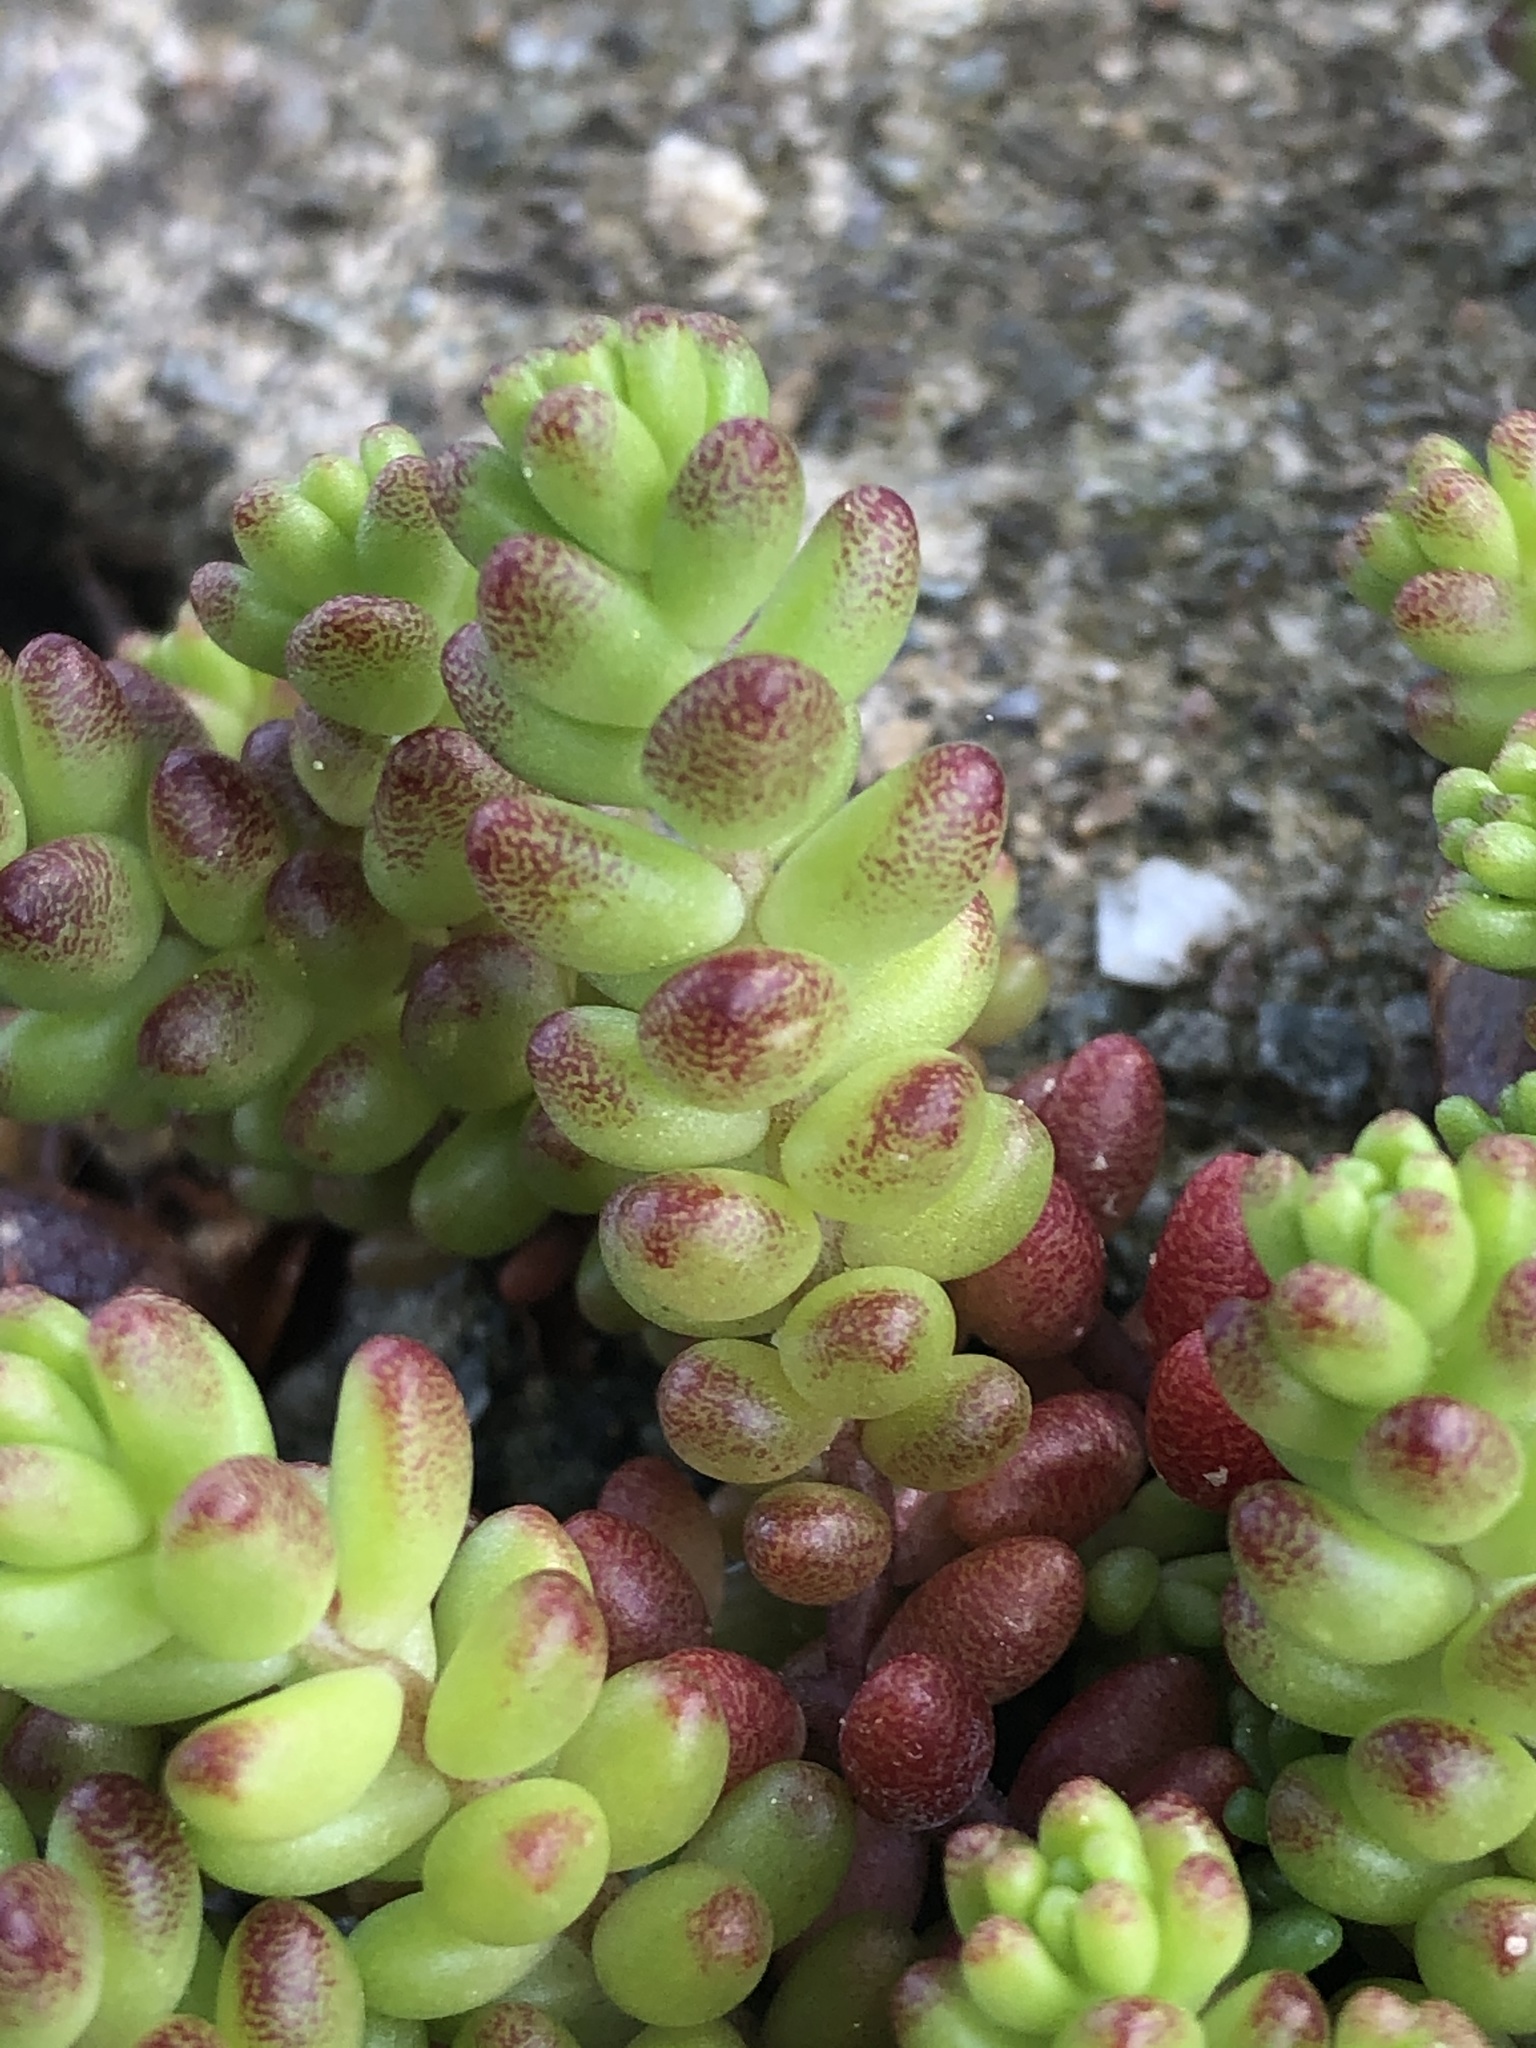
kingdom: Plantae
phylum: Tracheophyta
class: Magnoliopsida
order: Saxifragales
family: Crassulaceae
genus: Sedum
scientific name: Sedum album
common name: White stonecrop
